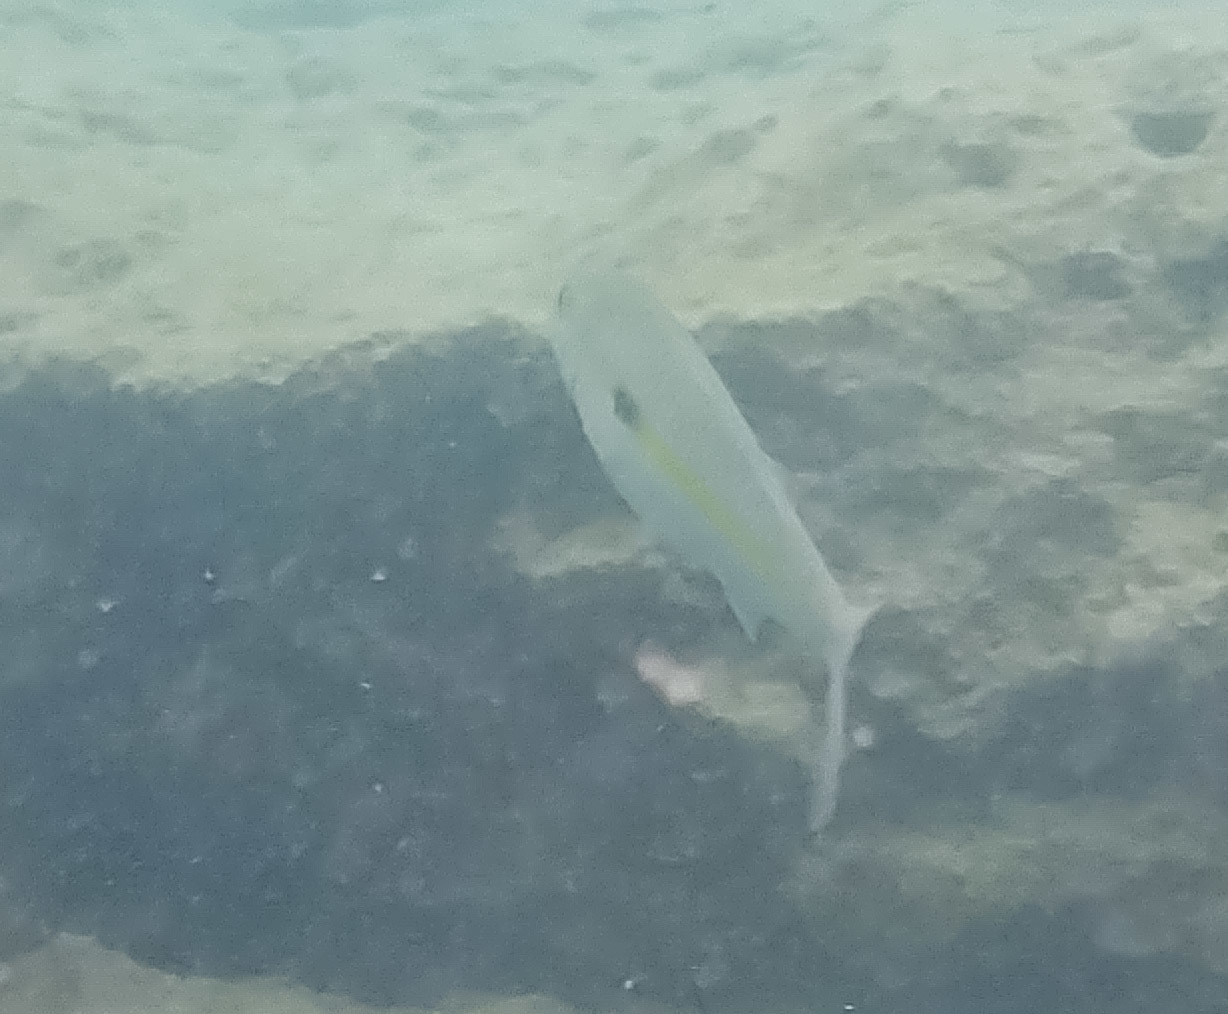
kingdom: Animalia
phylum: Chordata
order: Perciformes
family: Mullidae
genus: Mulloidichthys
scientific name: Mulloidichthys flavolineatus
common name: Yellowstripe goatfish
